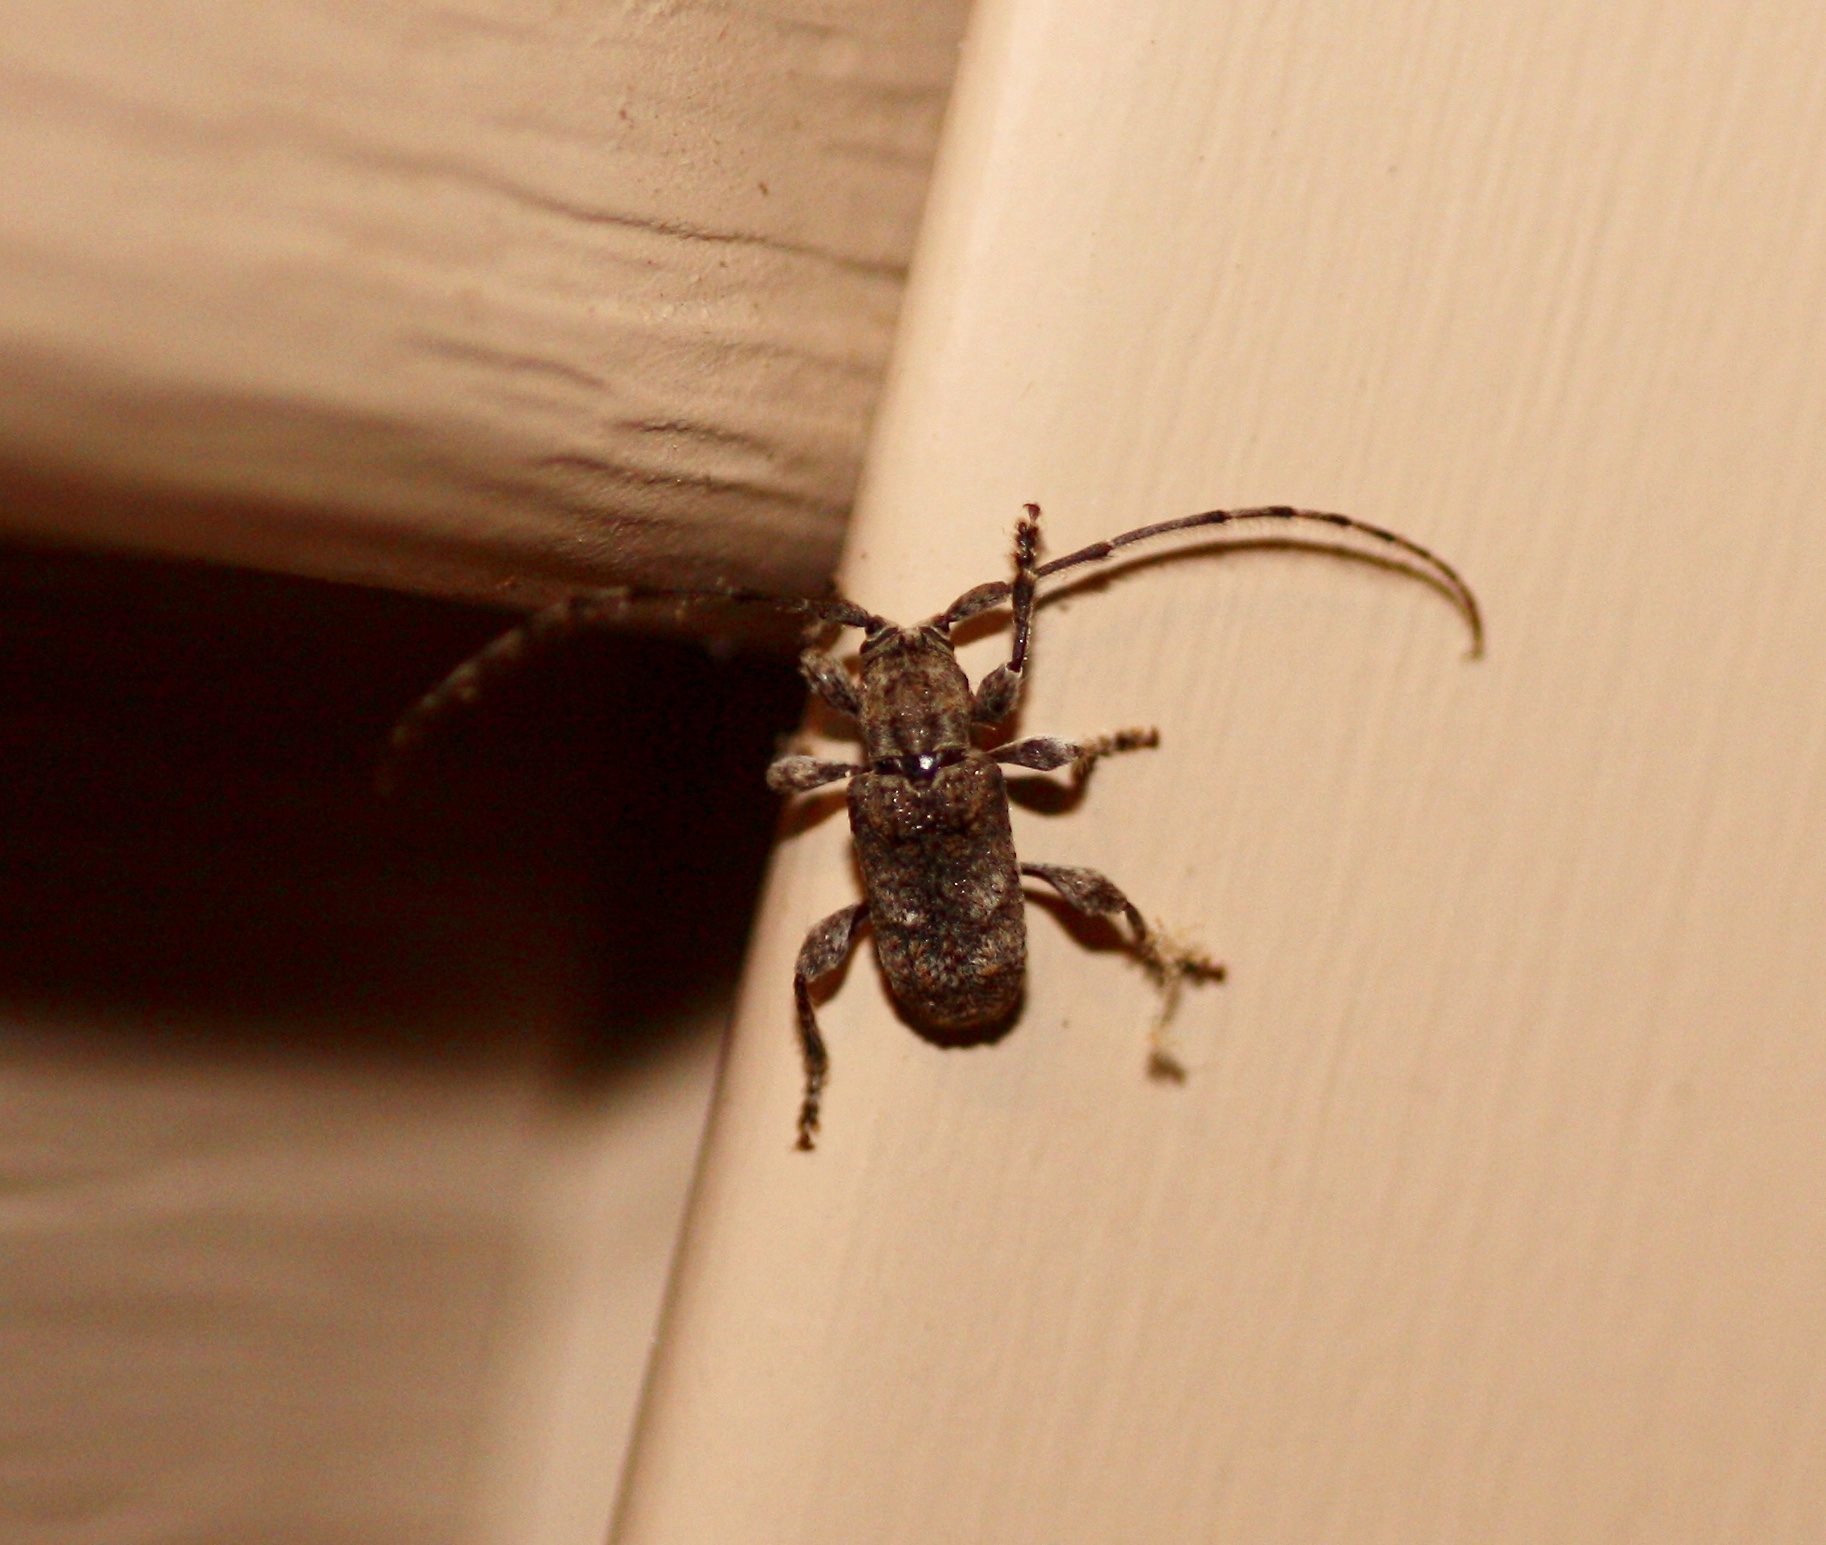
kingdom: Animalia
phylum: Arthropoda
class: Insecta
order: Coleoptera
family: Cerambycidae
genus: Ecyrus
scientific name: Ecyrus dasycerus
